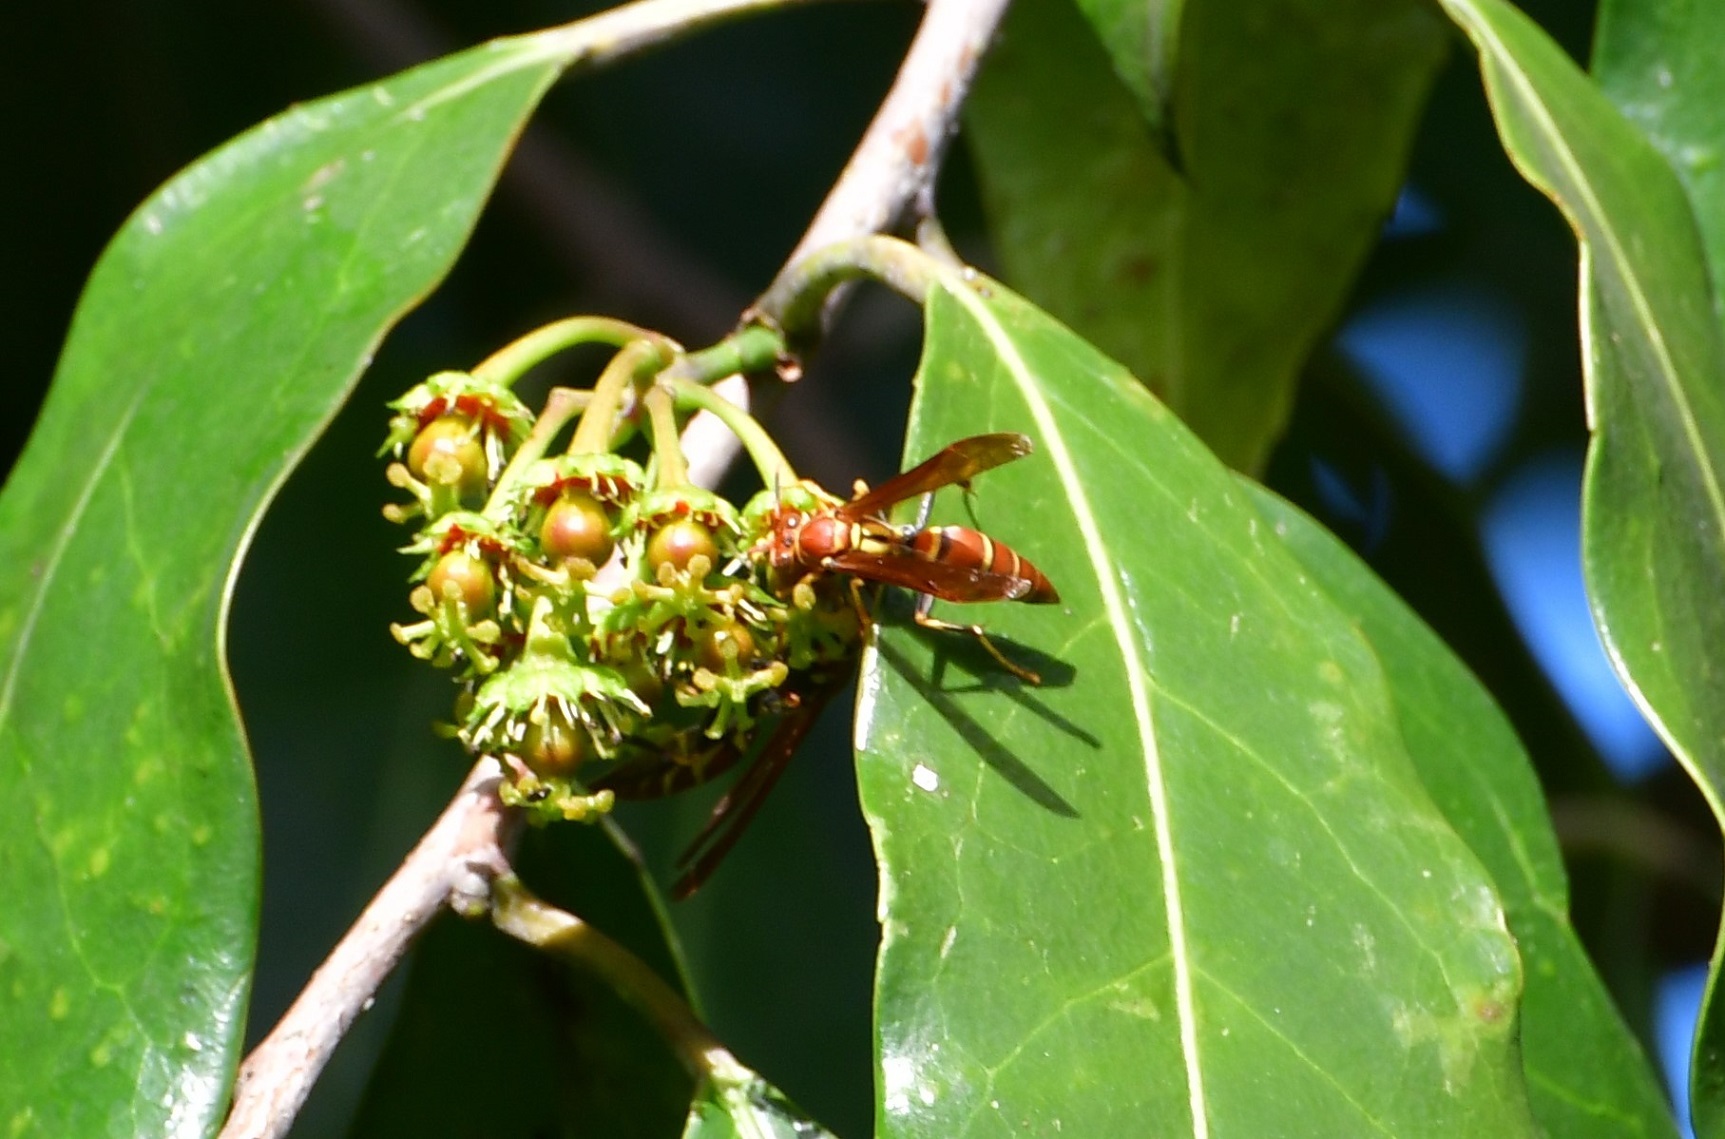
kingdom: Animalia
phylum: Arthropoda
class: Insecta
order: Hymenoptera
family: Eumenidae
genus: Polistes
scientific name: Polistes instabilis
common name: Unstable paper wasp
